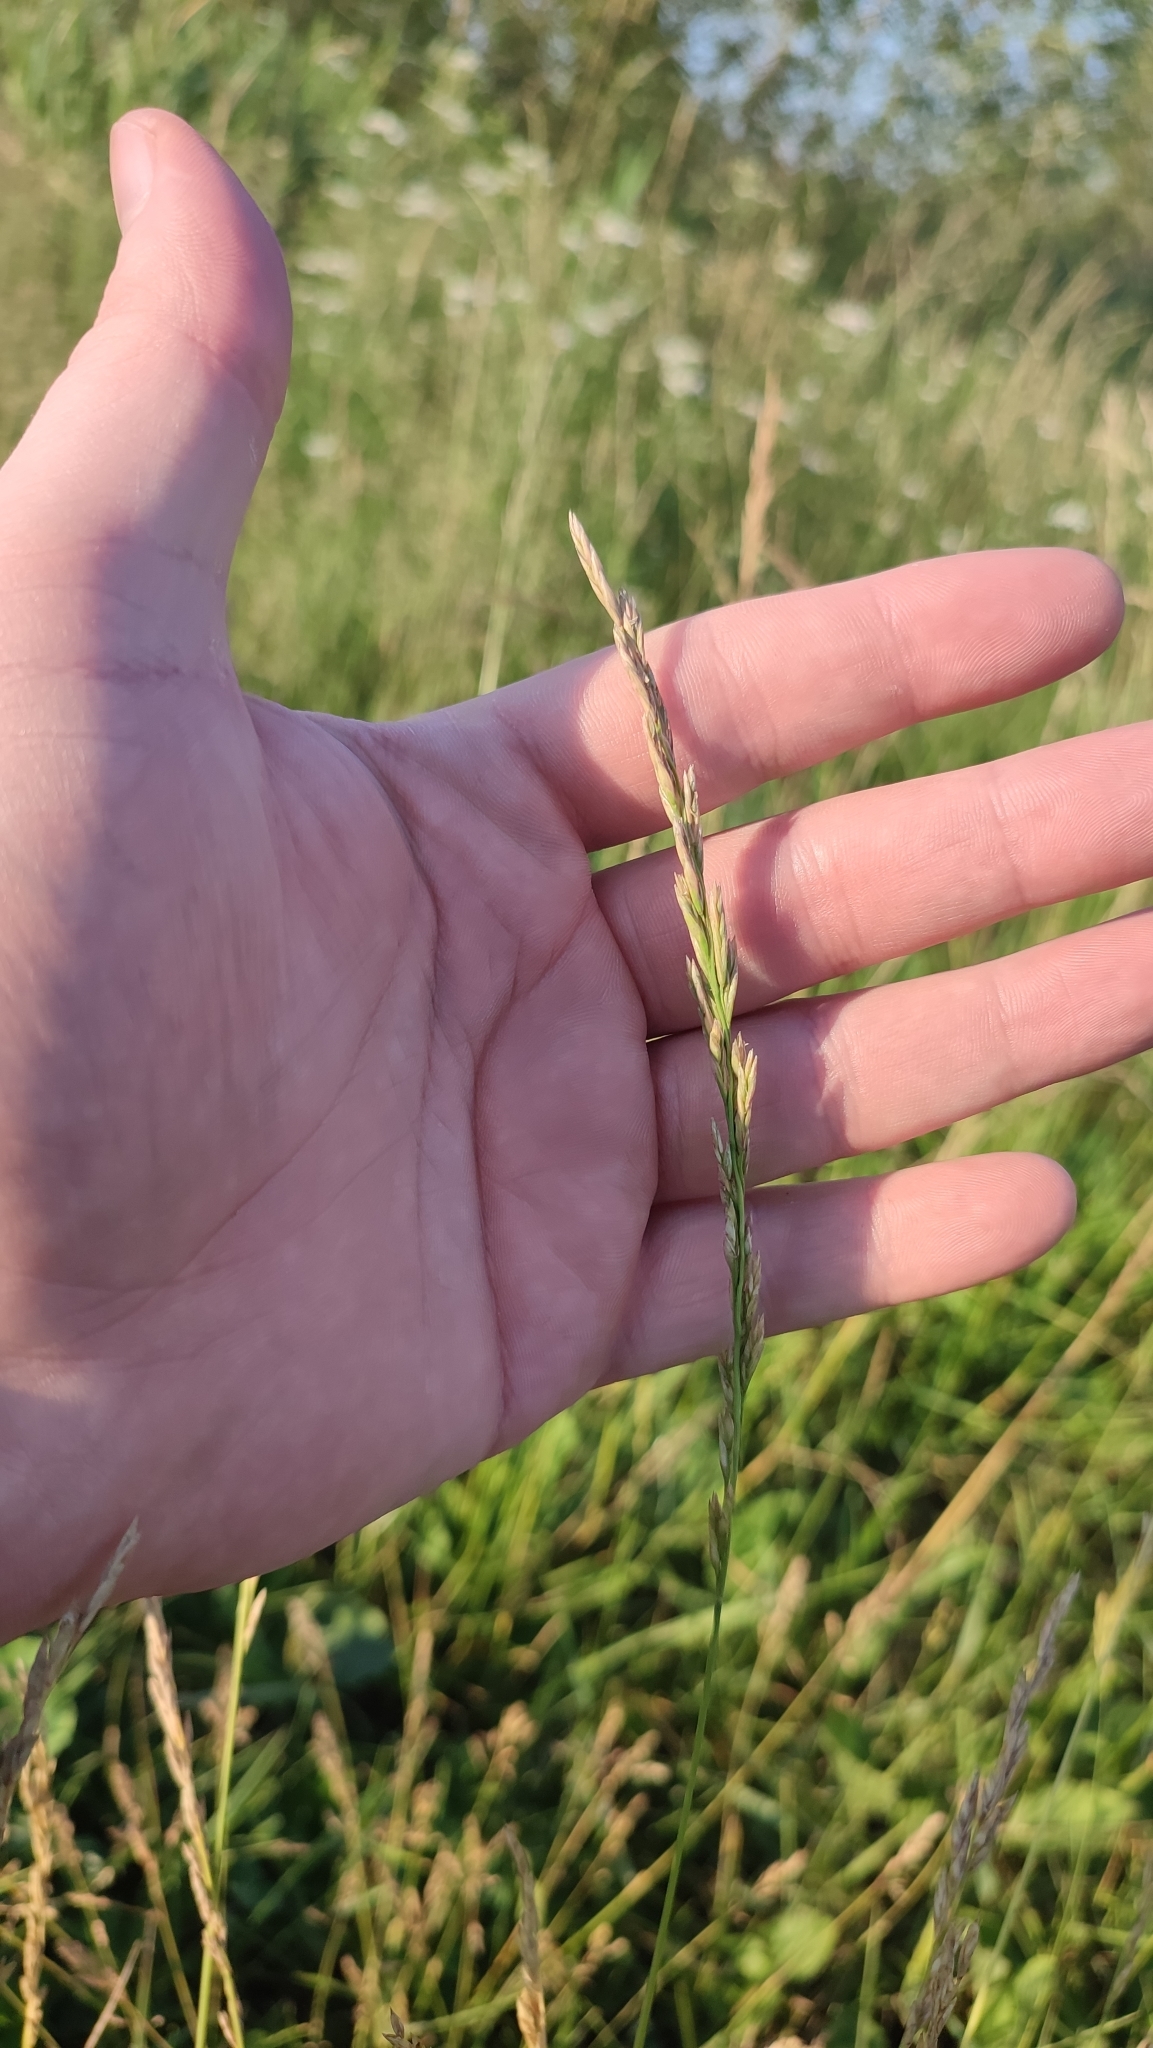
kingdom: Plantae
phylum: Tracheophyta
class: Liliopsida
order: Poales
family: Poaceae
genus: Lolium
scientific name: Lolium pratense
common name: Dover grass
